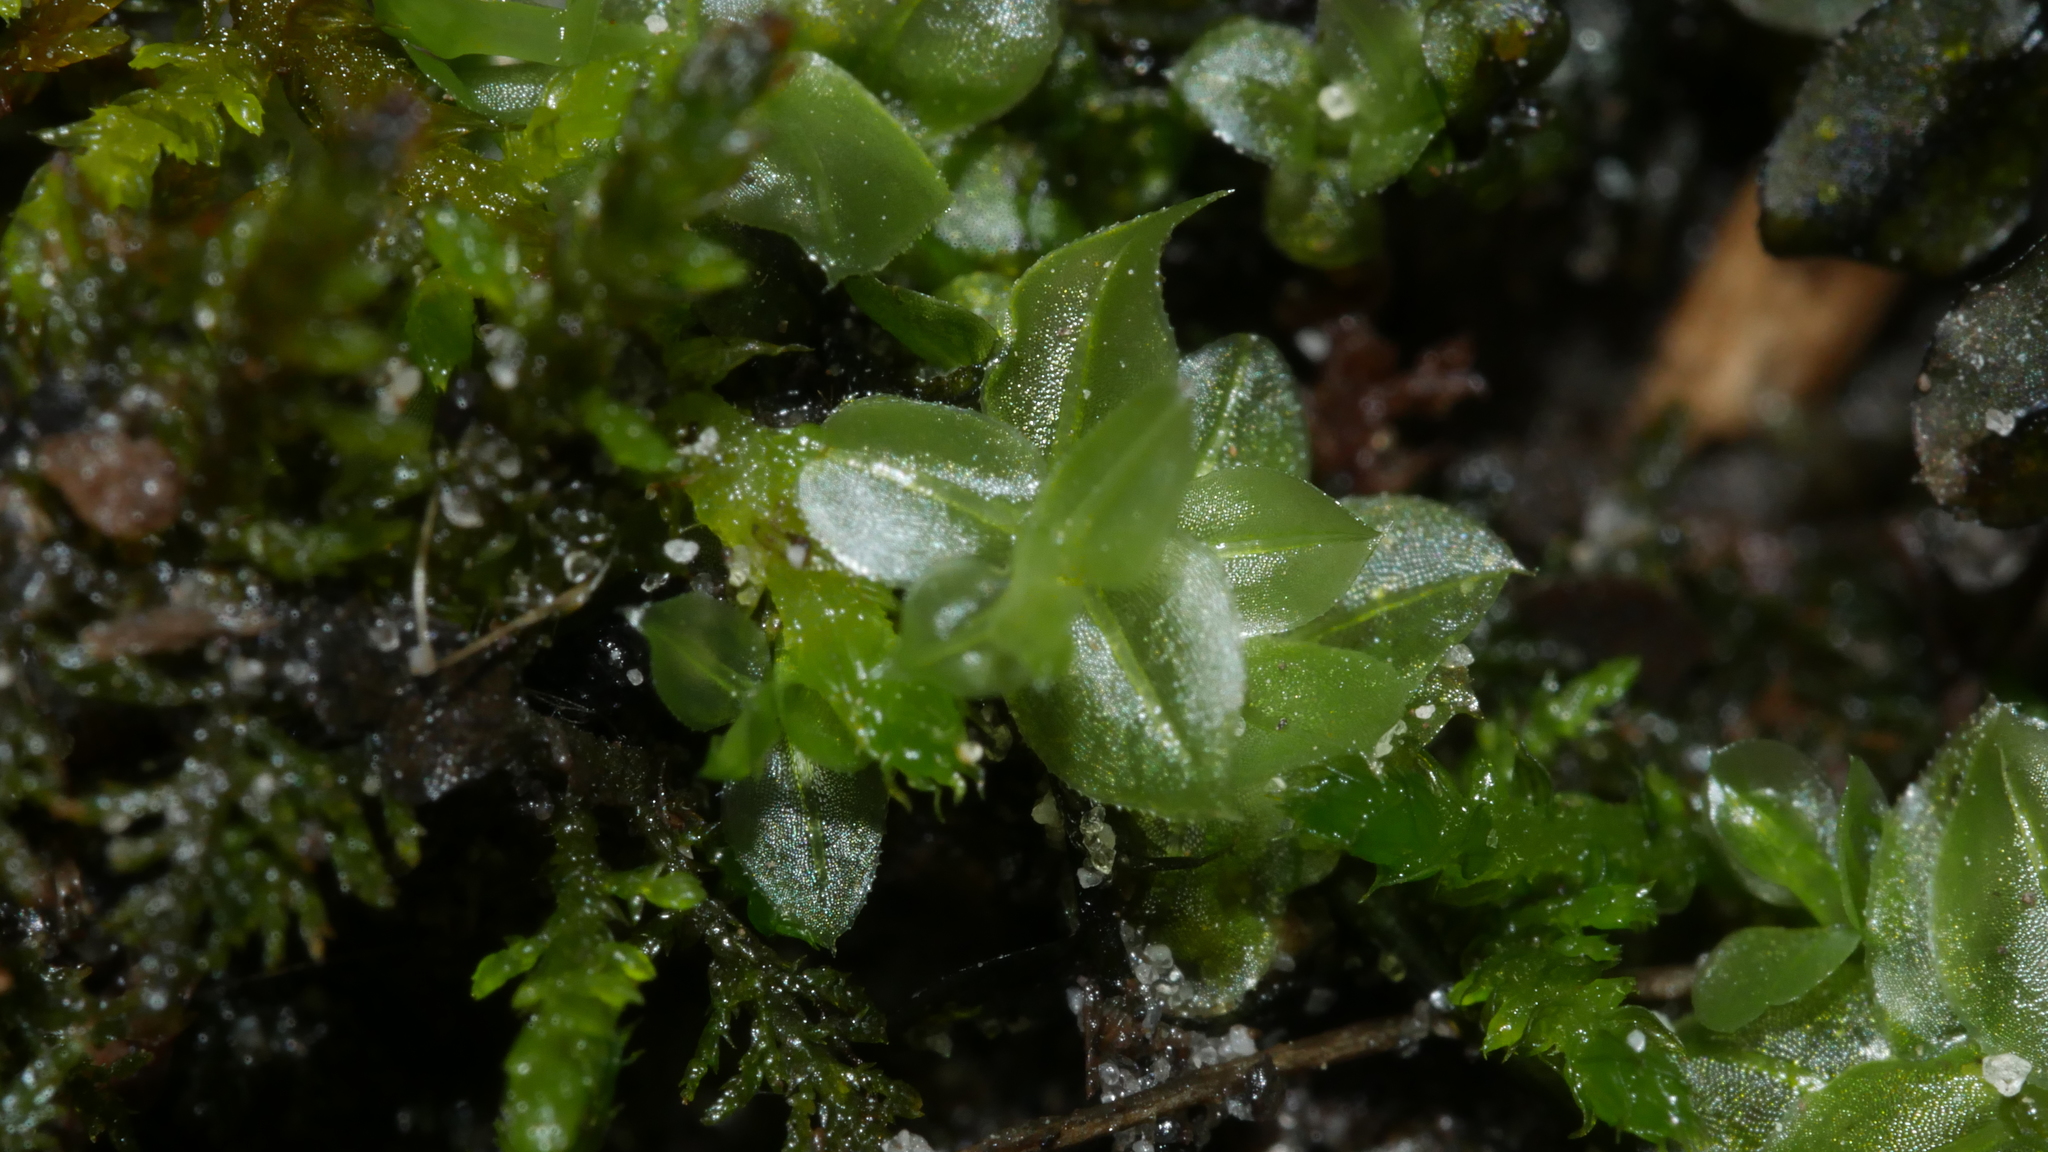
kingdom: Plantae
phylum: Bryophyta
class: Bryopsida
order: Bryales
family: Mniaceae
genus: Plagiomnium
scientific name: Plagiomnium
